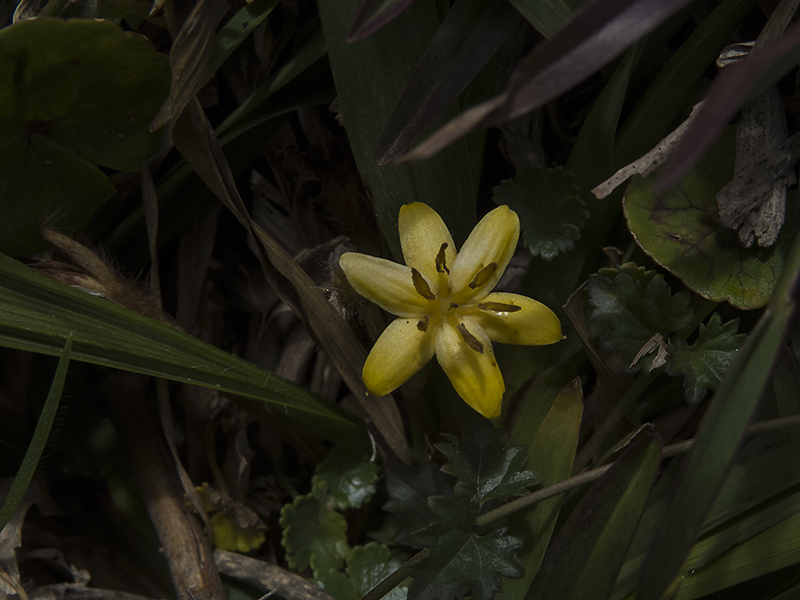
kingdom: Plantae
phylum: Tracheophyta
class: Liliopsida
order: Asparagales
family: Hypoxidaceae
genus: Curculigo
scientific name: Curculigo orchioides
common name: Golden eye-grass
